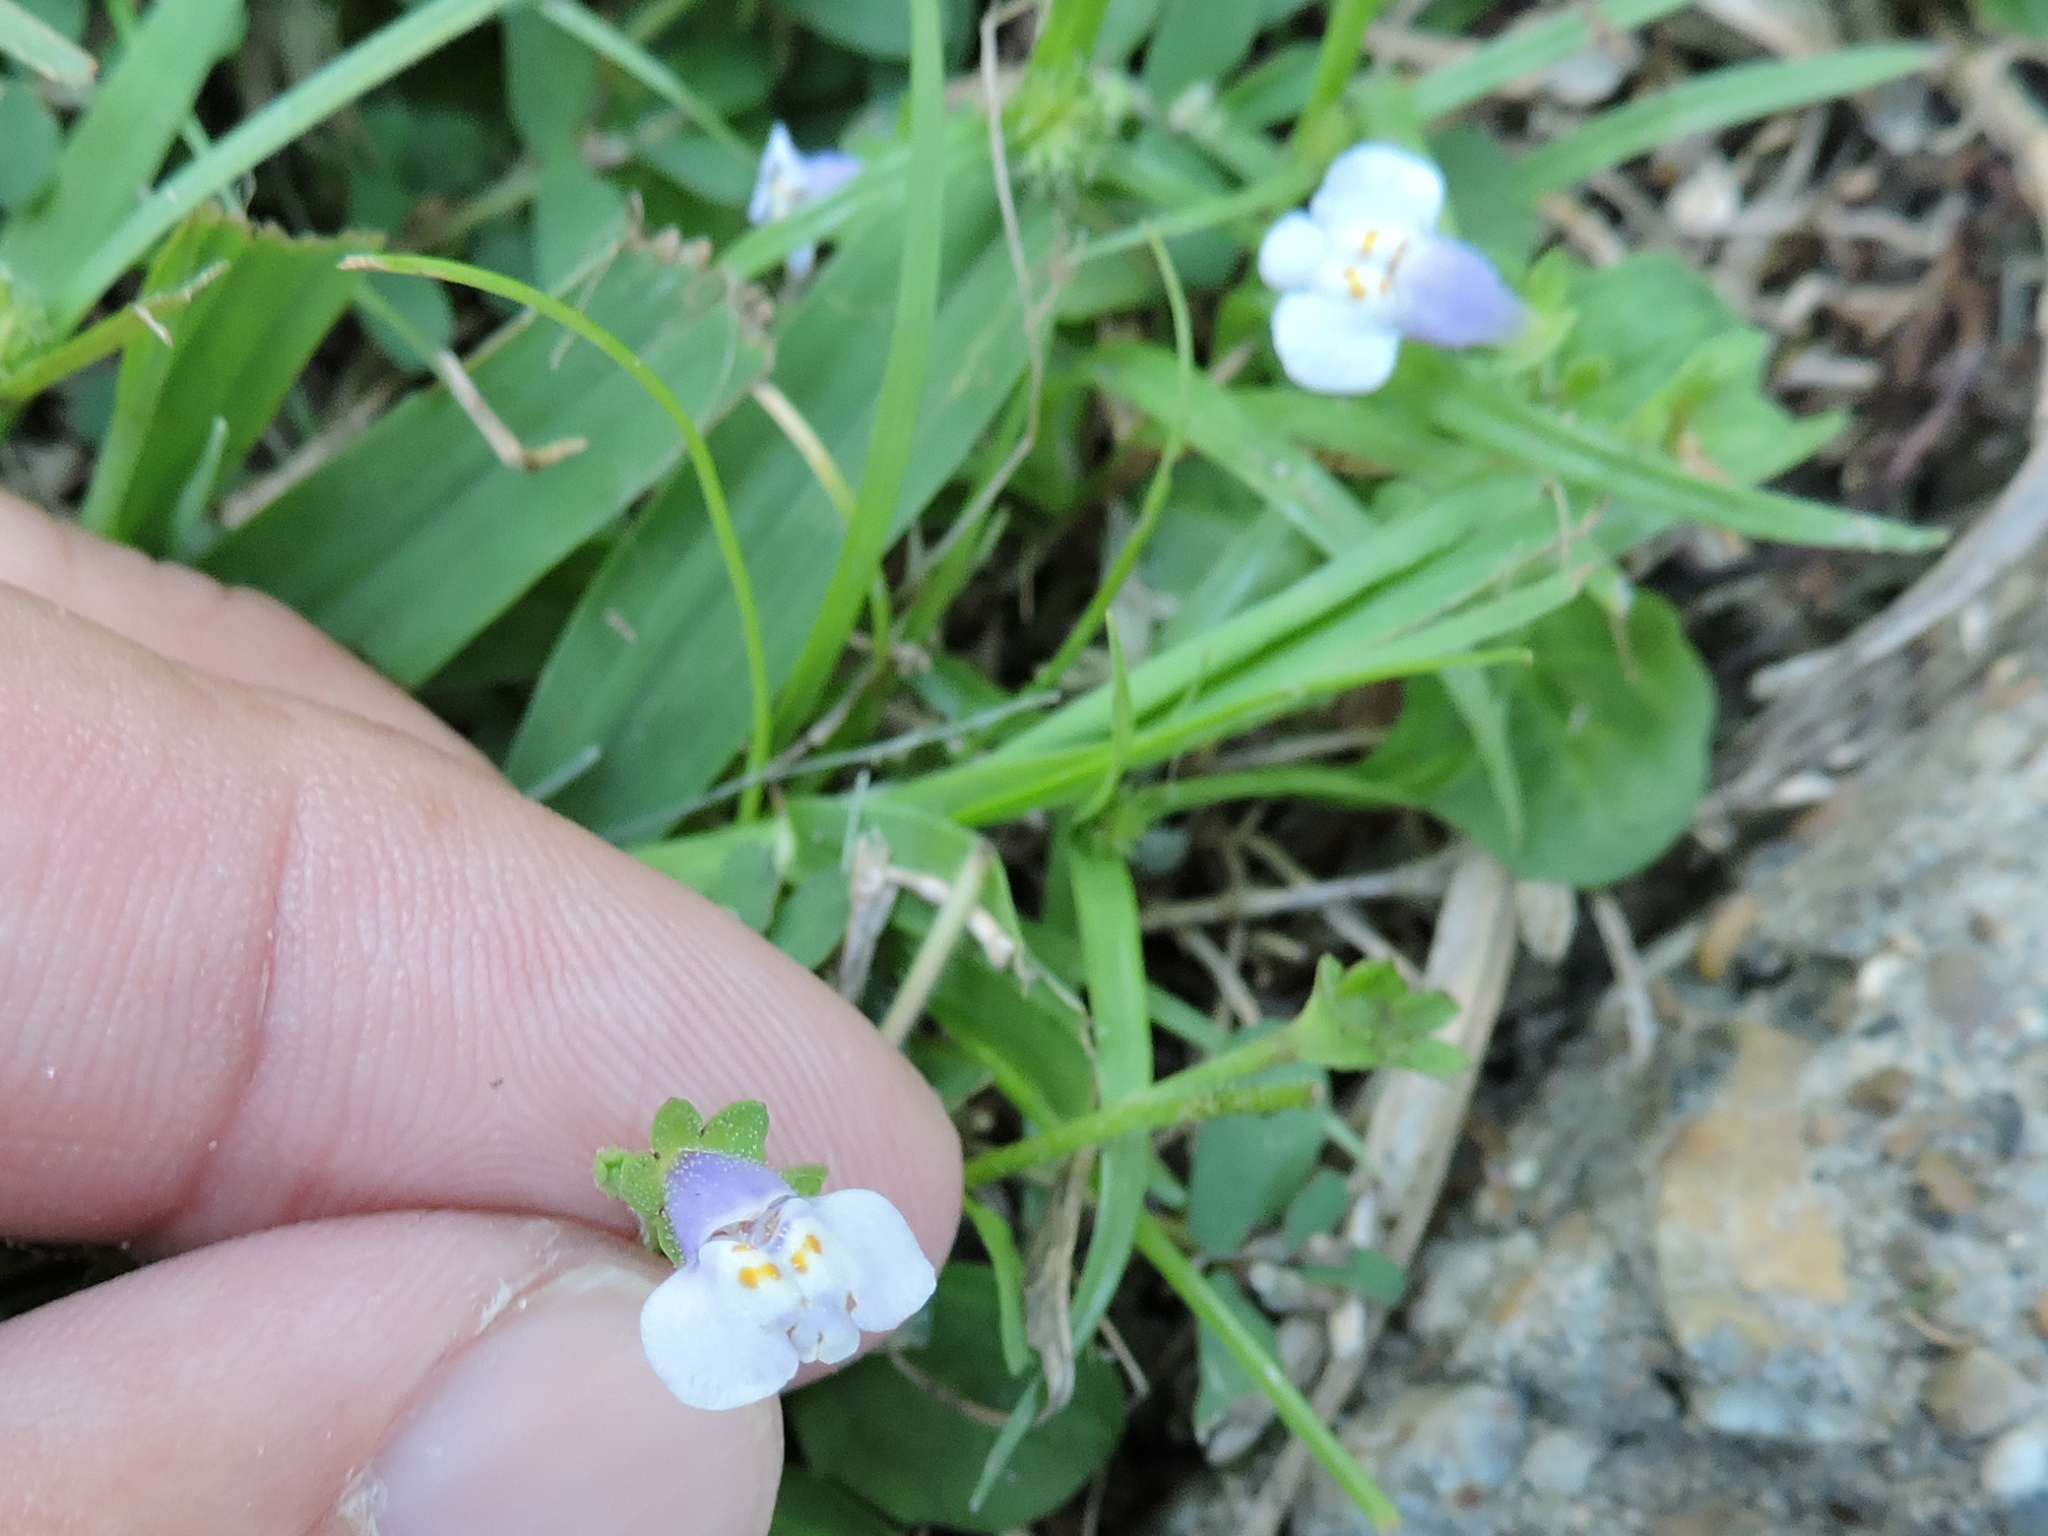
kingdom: Plantae
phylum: Tracheophyta
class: Magnoliopsida
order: Lamiales
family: Mazaceae
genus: Mazus
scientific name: Mazus pumilus
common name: Japanese mazus
